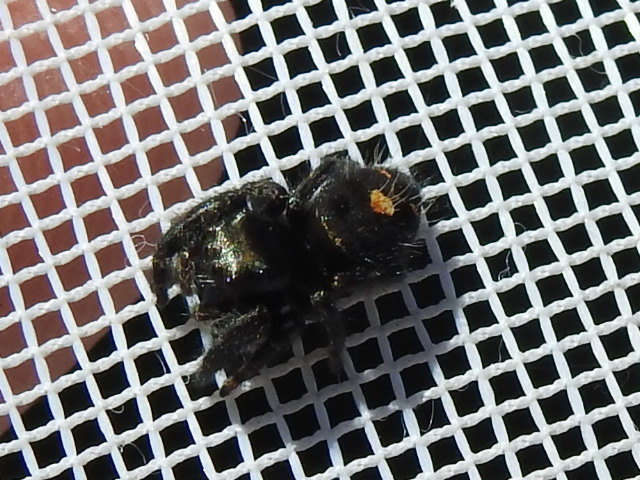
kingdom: Animalia
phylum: Arthropoda
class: Arachnida
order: Araneae
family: Salticidae
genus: Phidippus
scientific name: Phidippus audax
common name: Bold jumper
